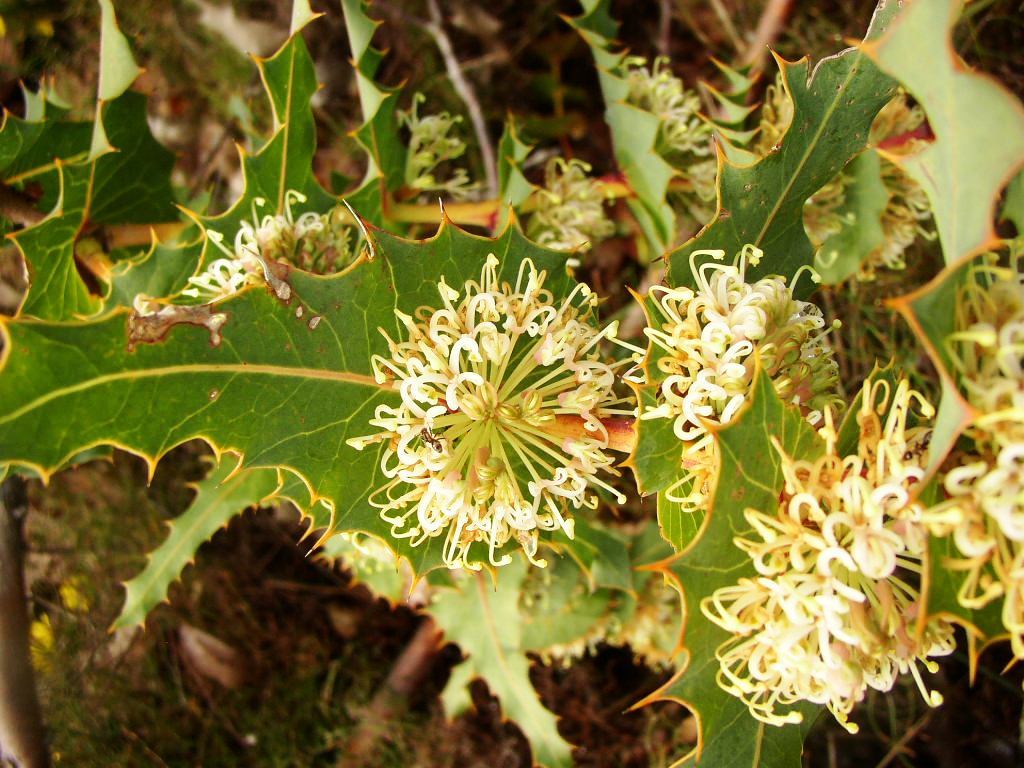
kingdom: Plantae
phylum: Tracheophyta
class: Magnoliopsida
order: Proteales
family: Proteaceae
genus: Hakea
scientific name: Hakea amplexicaulis
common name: Prickly hakea
